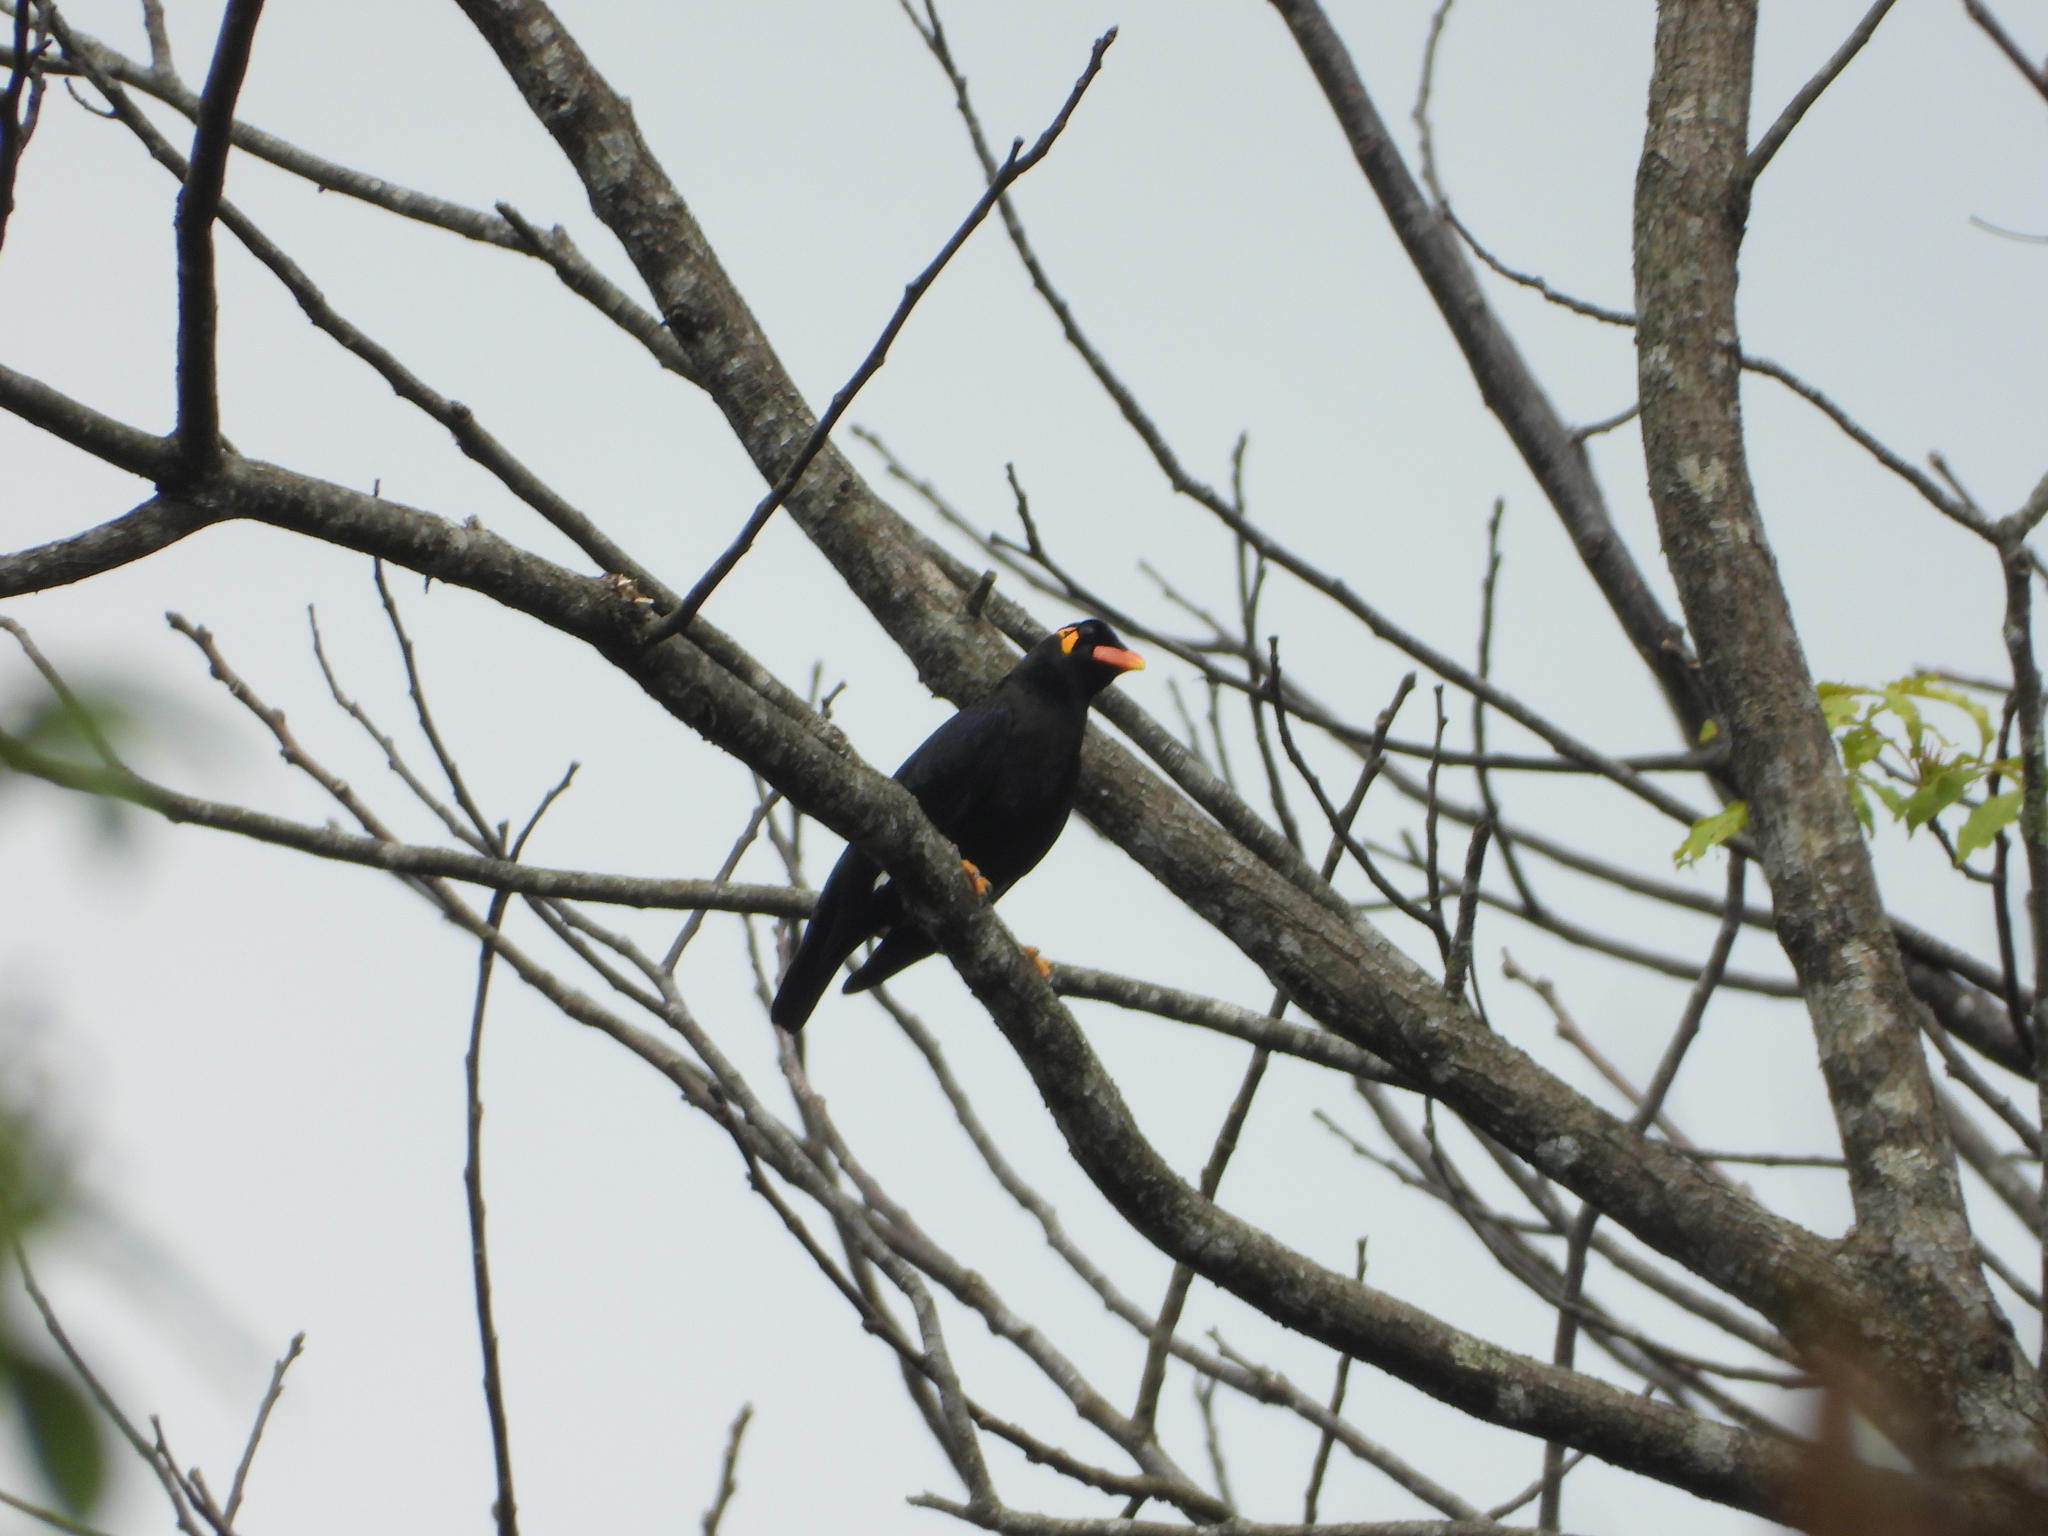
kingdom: Animalia
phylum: Chordata
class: Aves
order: Passeriformes
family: Sturnidae
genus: Gracula
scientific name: Gracula religiosa
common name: Common hill myna
